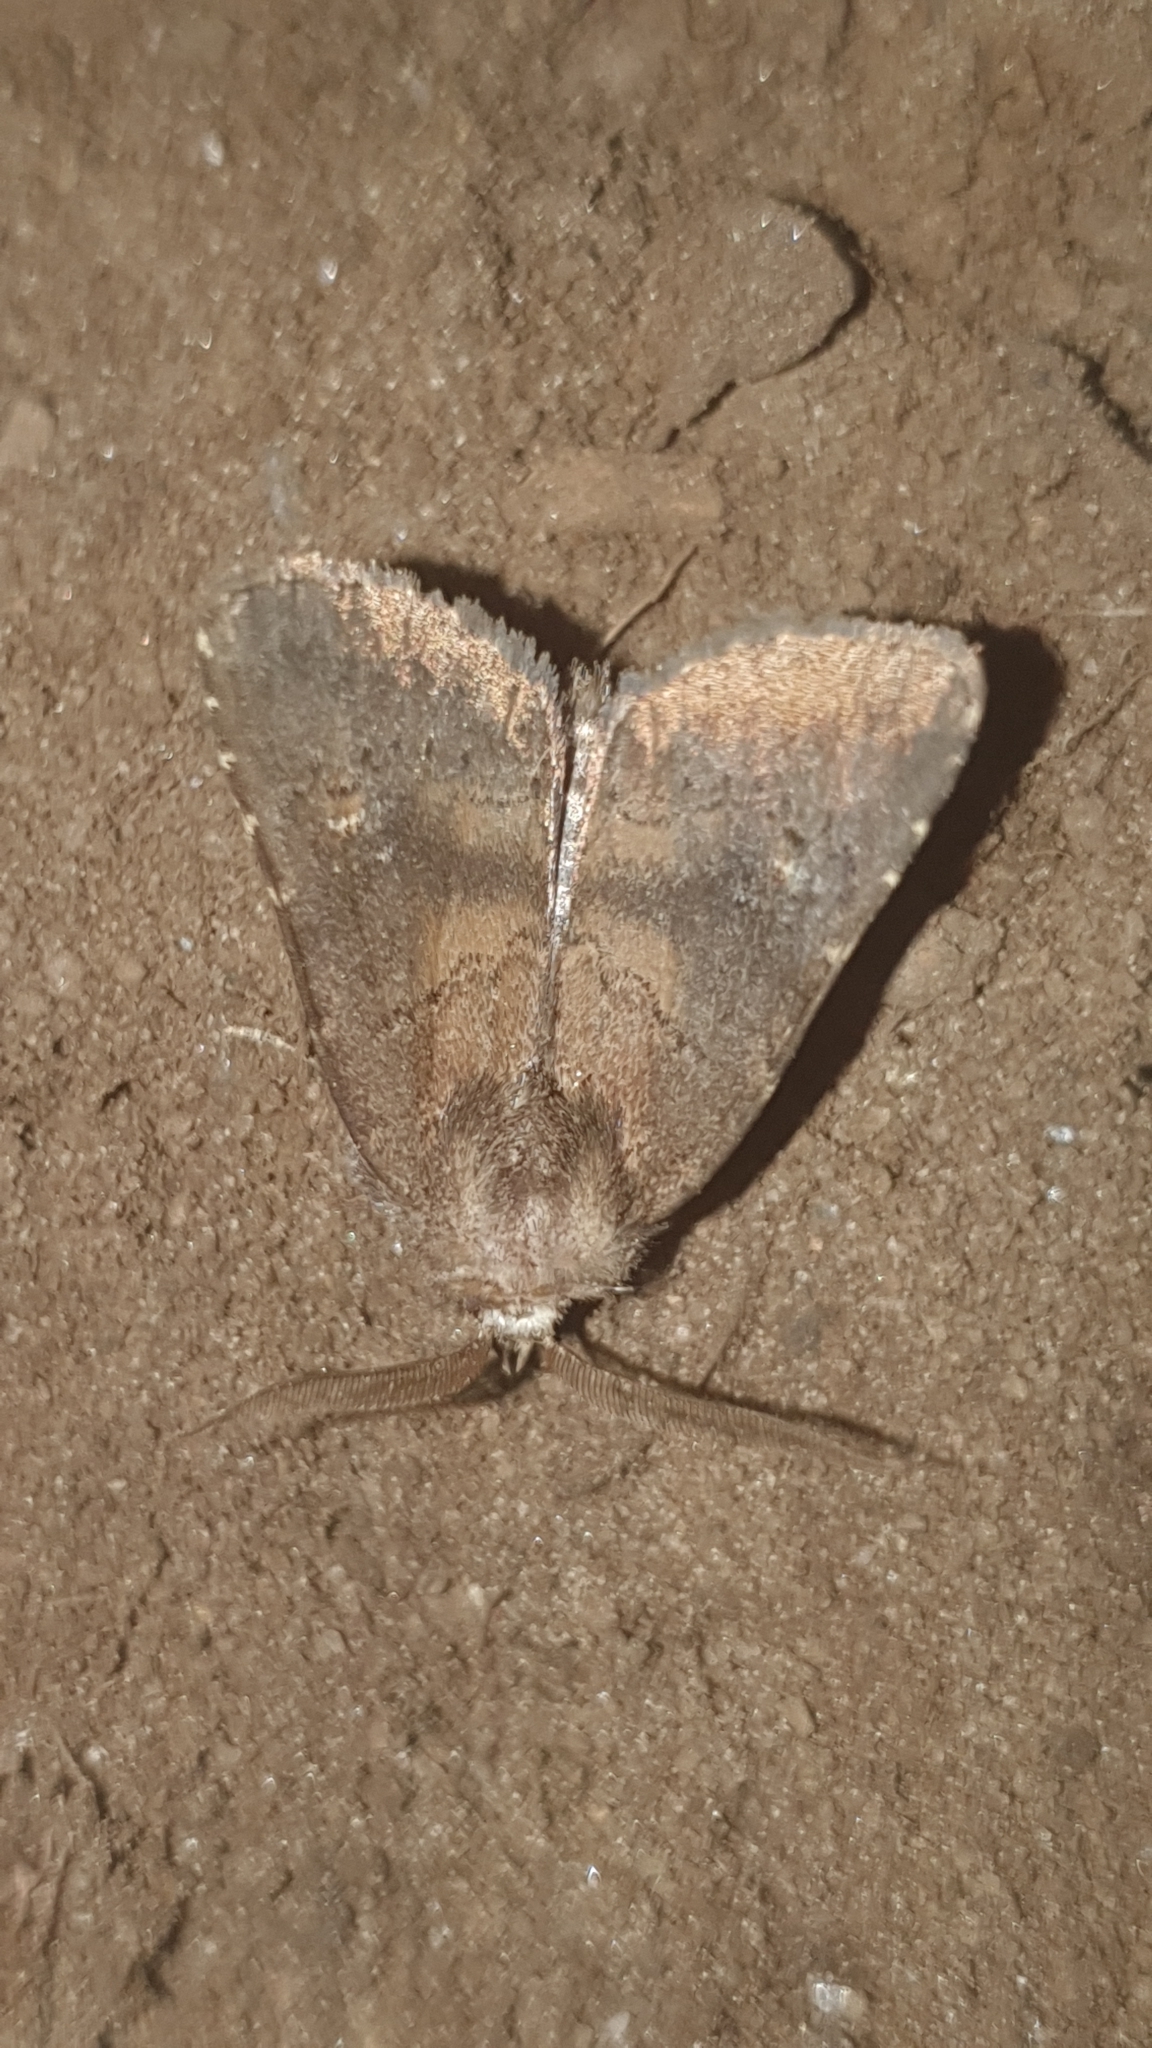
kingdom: Animalia
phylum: Arthropoda
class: Insecta
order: Lepidoptera
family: Noctuidae
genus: Charanyca
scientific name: Charanyca ferruginea
